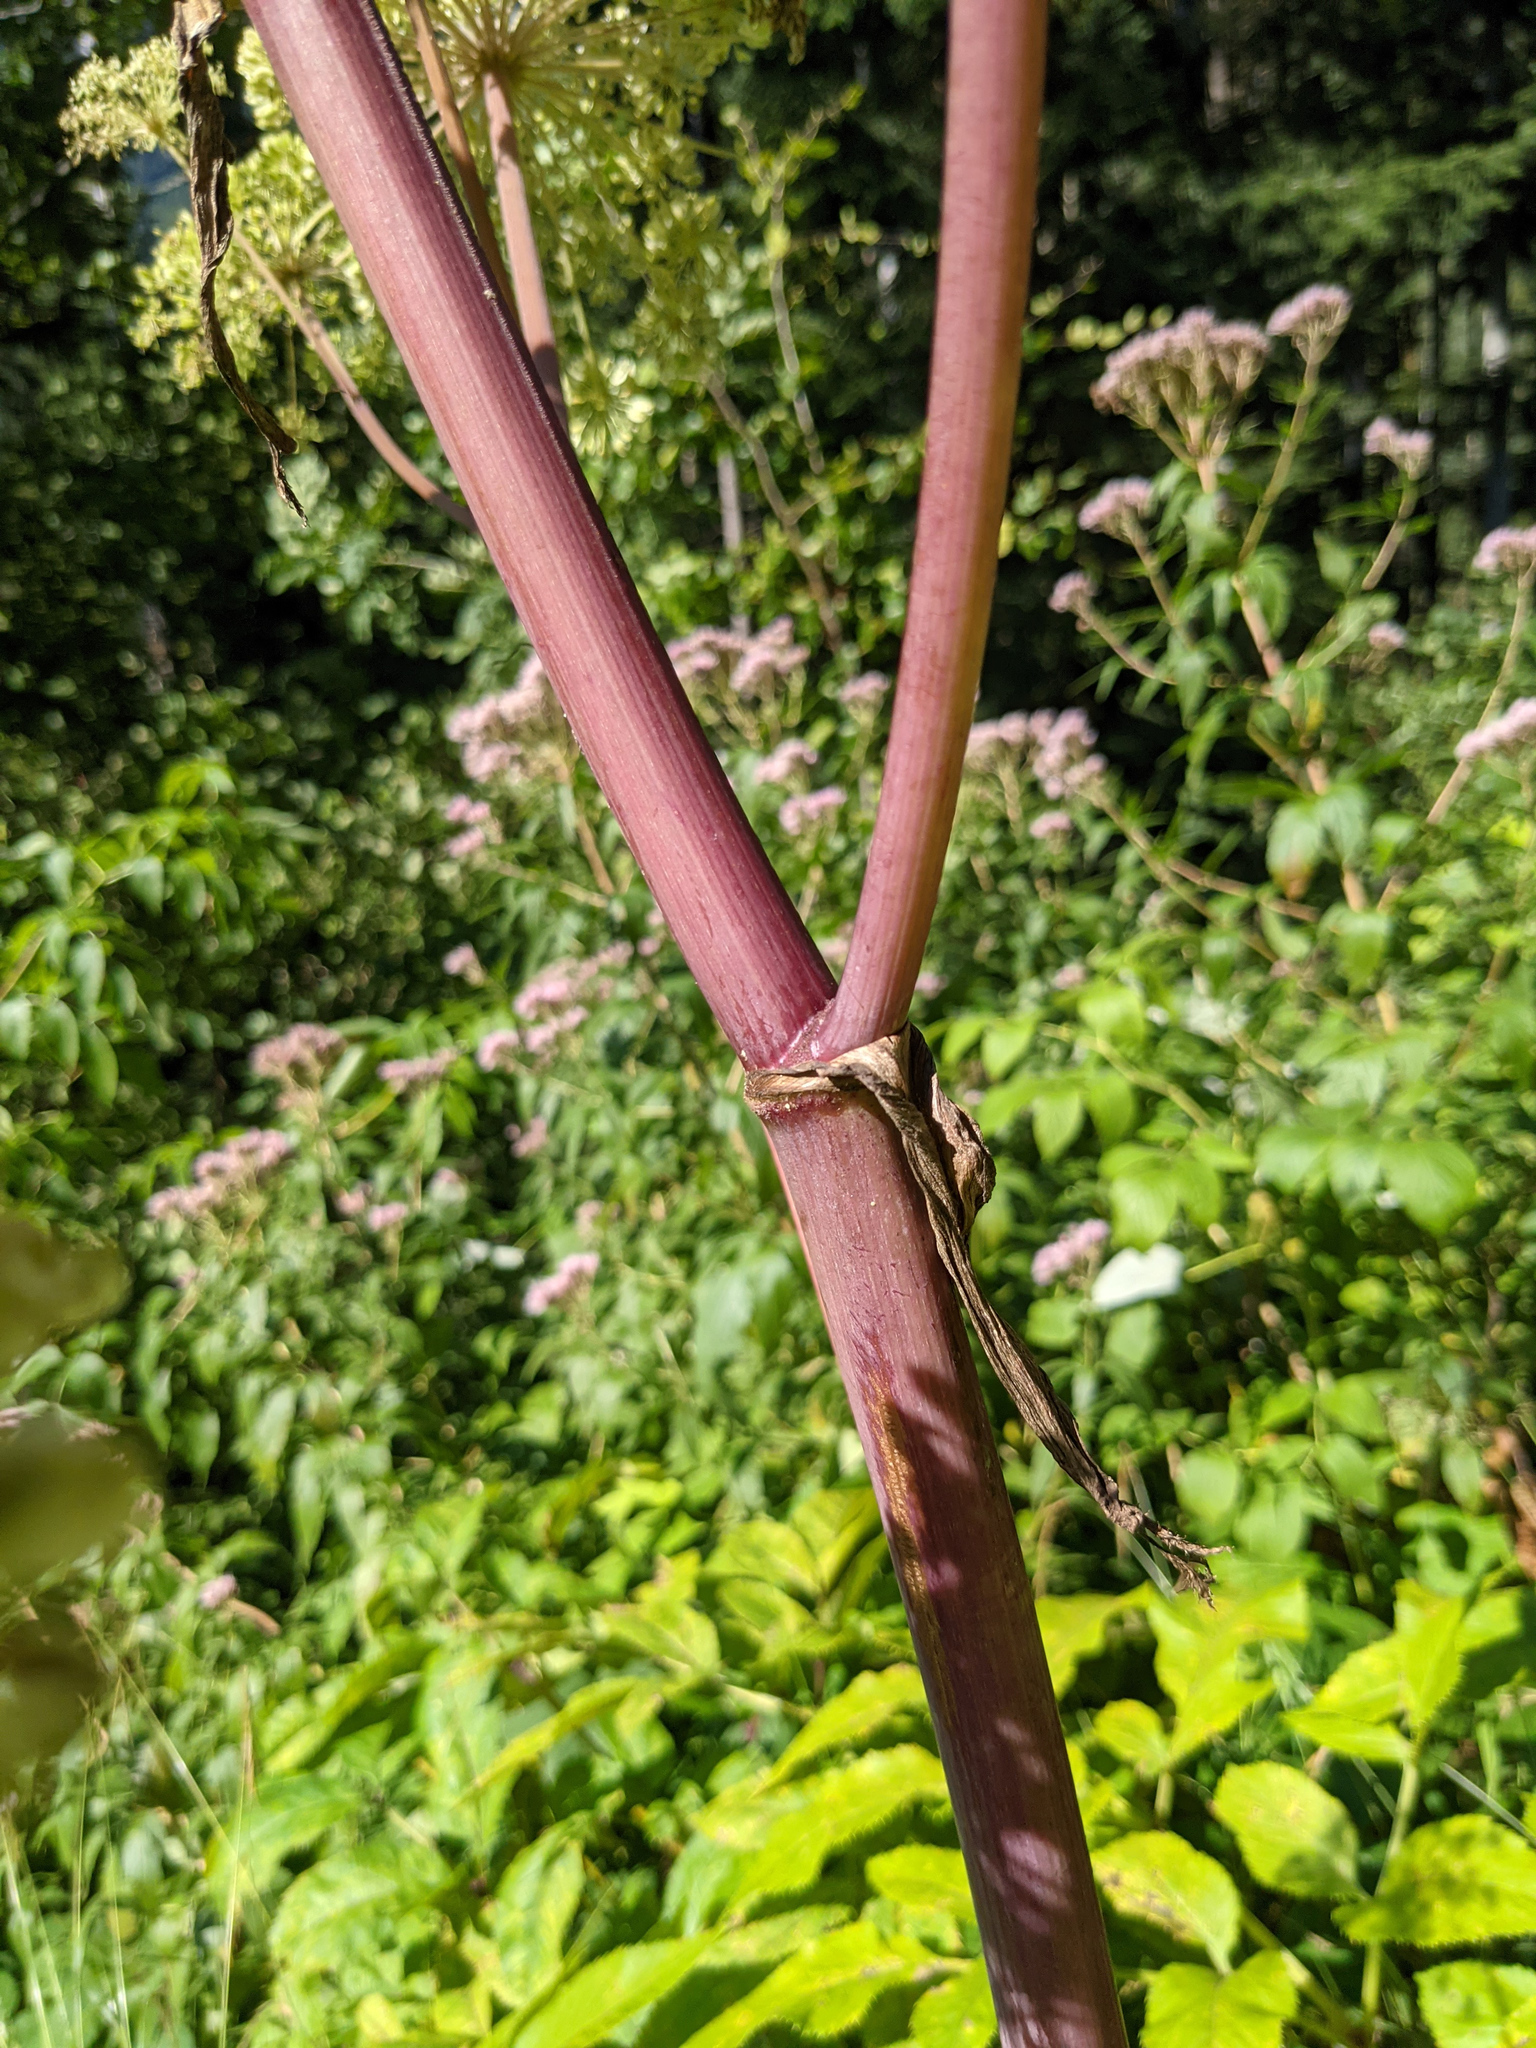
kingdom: Plantae
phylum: Tracheophyta
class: Magnoliopsida
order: Apiales
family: Apiaceae
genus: Angelica
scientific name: Angelica sylvestris
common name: Wild angelica
